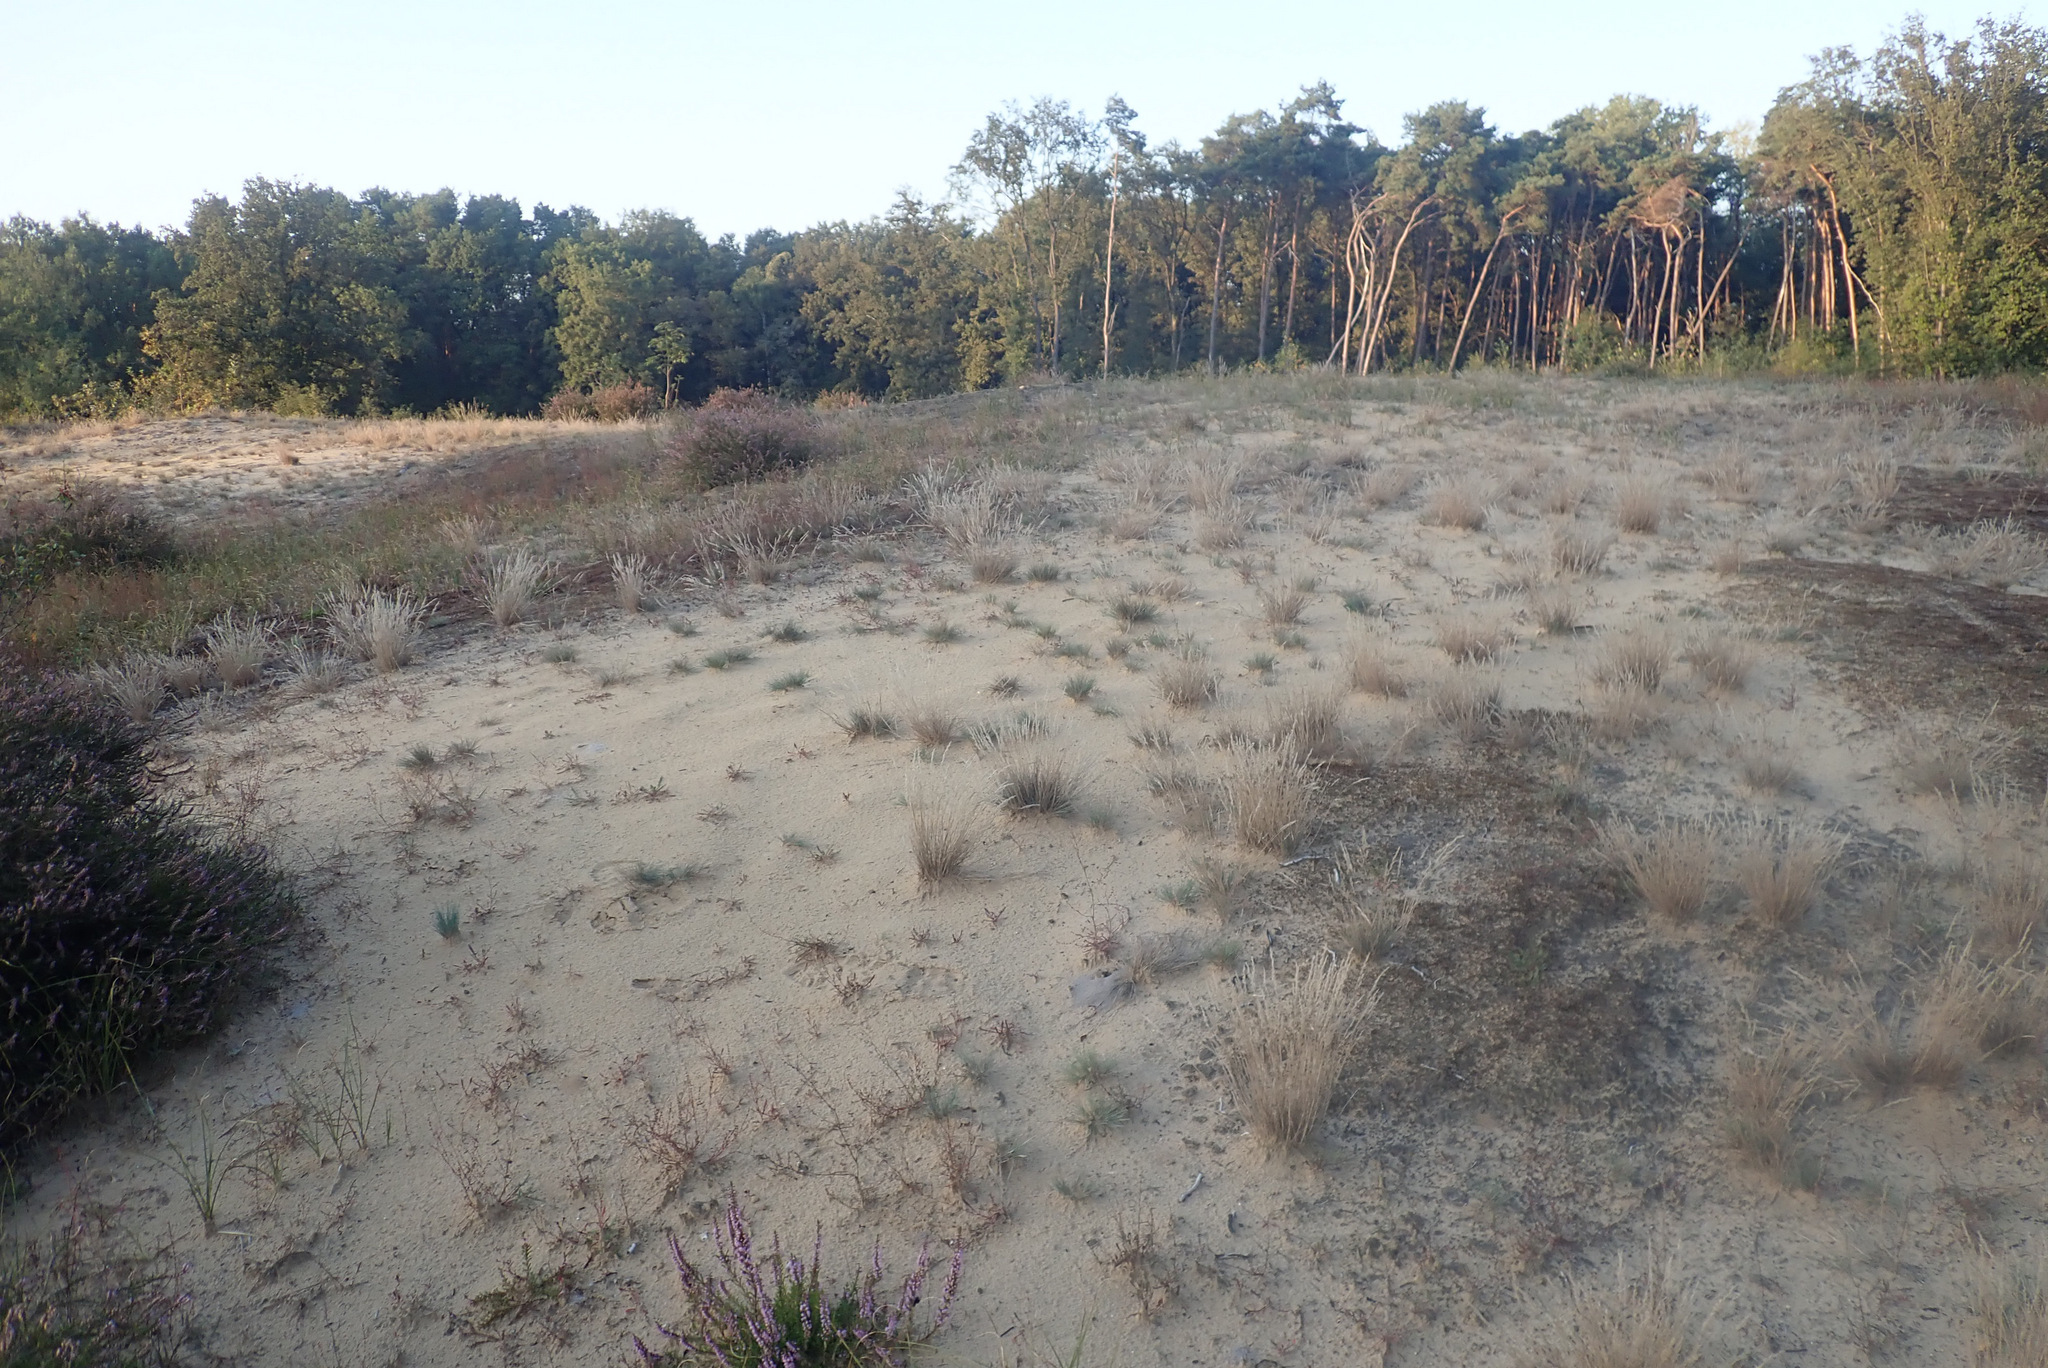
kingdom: Plantae
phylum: Tracheophyta
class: Liliopsida
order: Poales
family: Poaceae
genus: Corynephorus
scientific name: Corynephorus canescens
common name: Grey hair-grass
